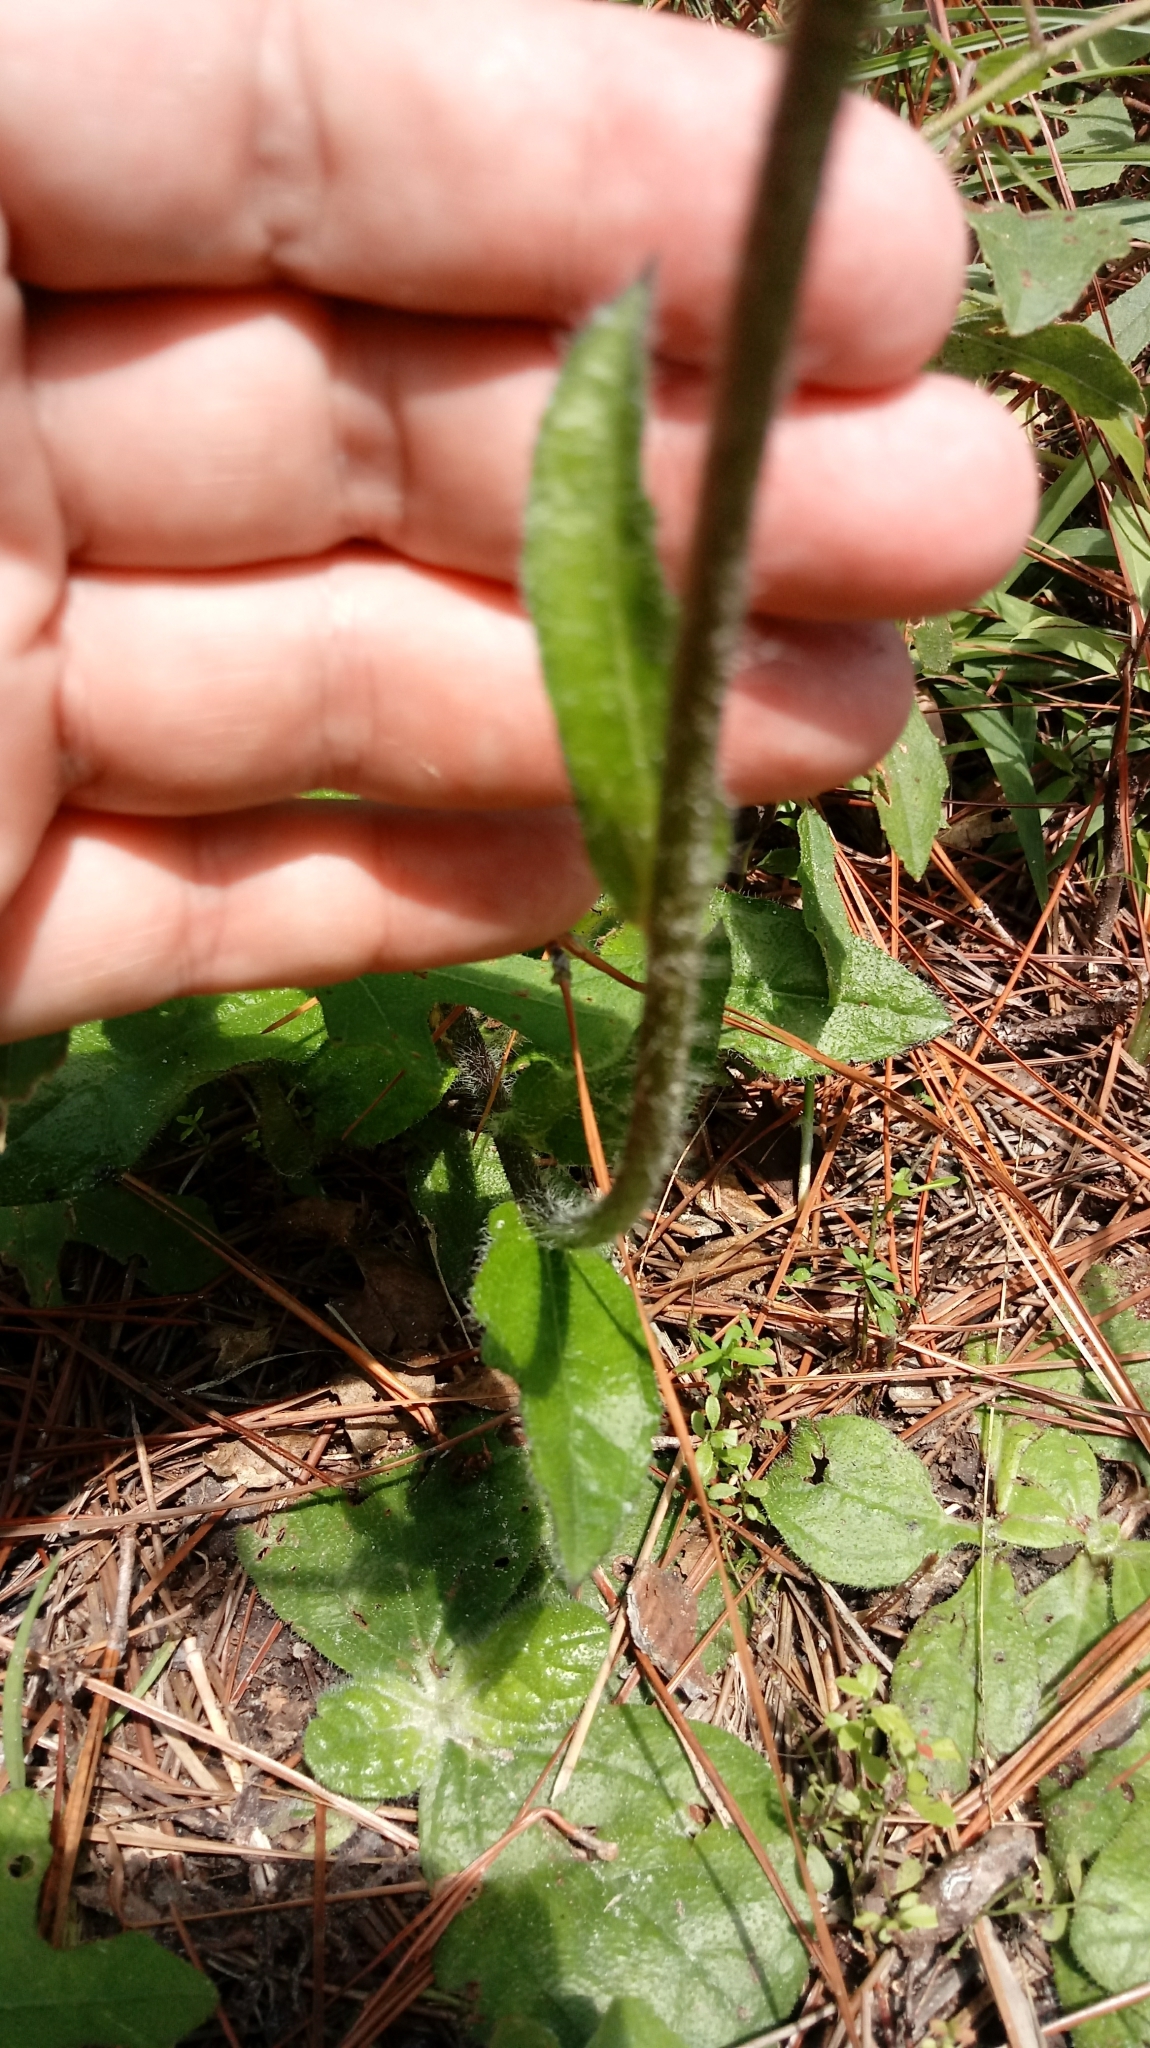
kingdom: Plantae
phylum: Tracheophyta
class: Magnoliopsida
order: Asterales
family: Asteraceae
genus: Helianthus
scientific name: Helianthus radula
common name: Pineland sunflower
